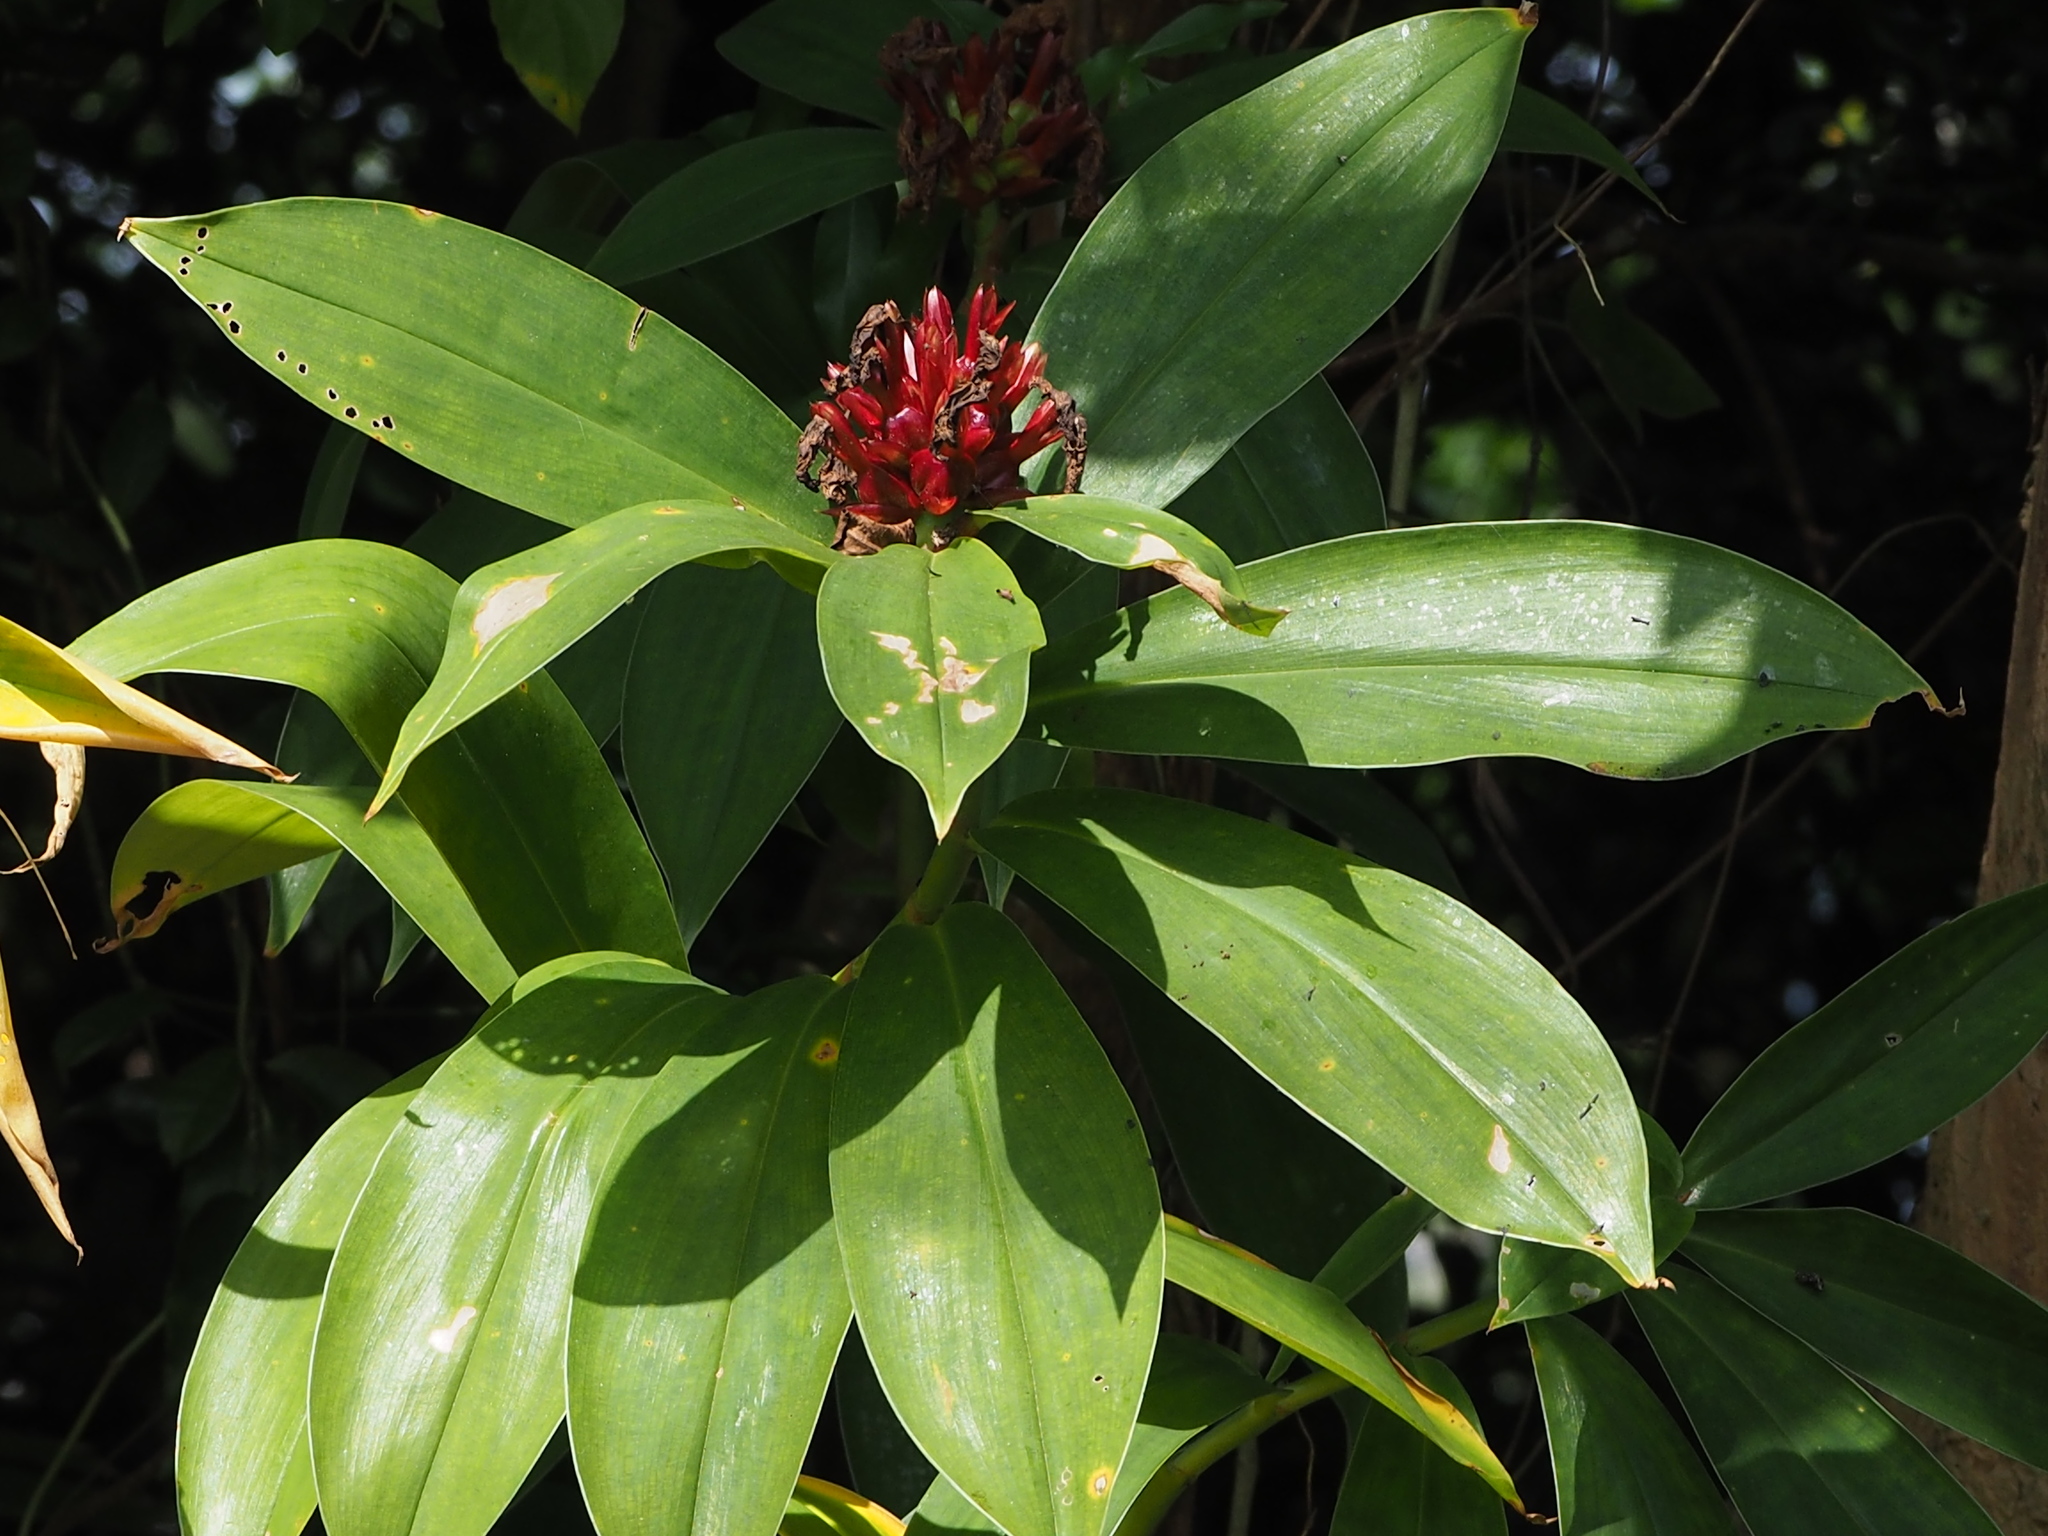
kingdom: Plantae
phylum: Tracheophyta
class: Liliopsida
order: Zingiberales
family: Costaceae
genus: Hellenia
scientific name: Hellenia speciosa
